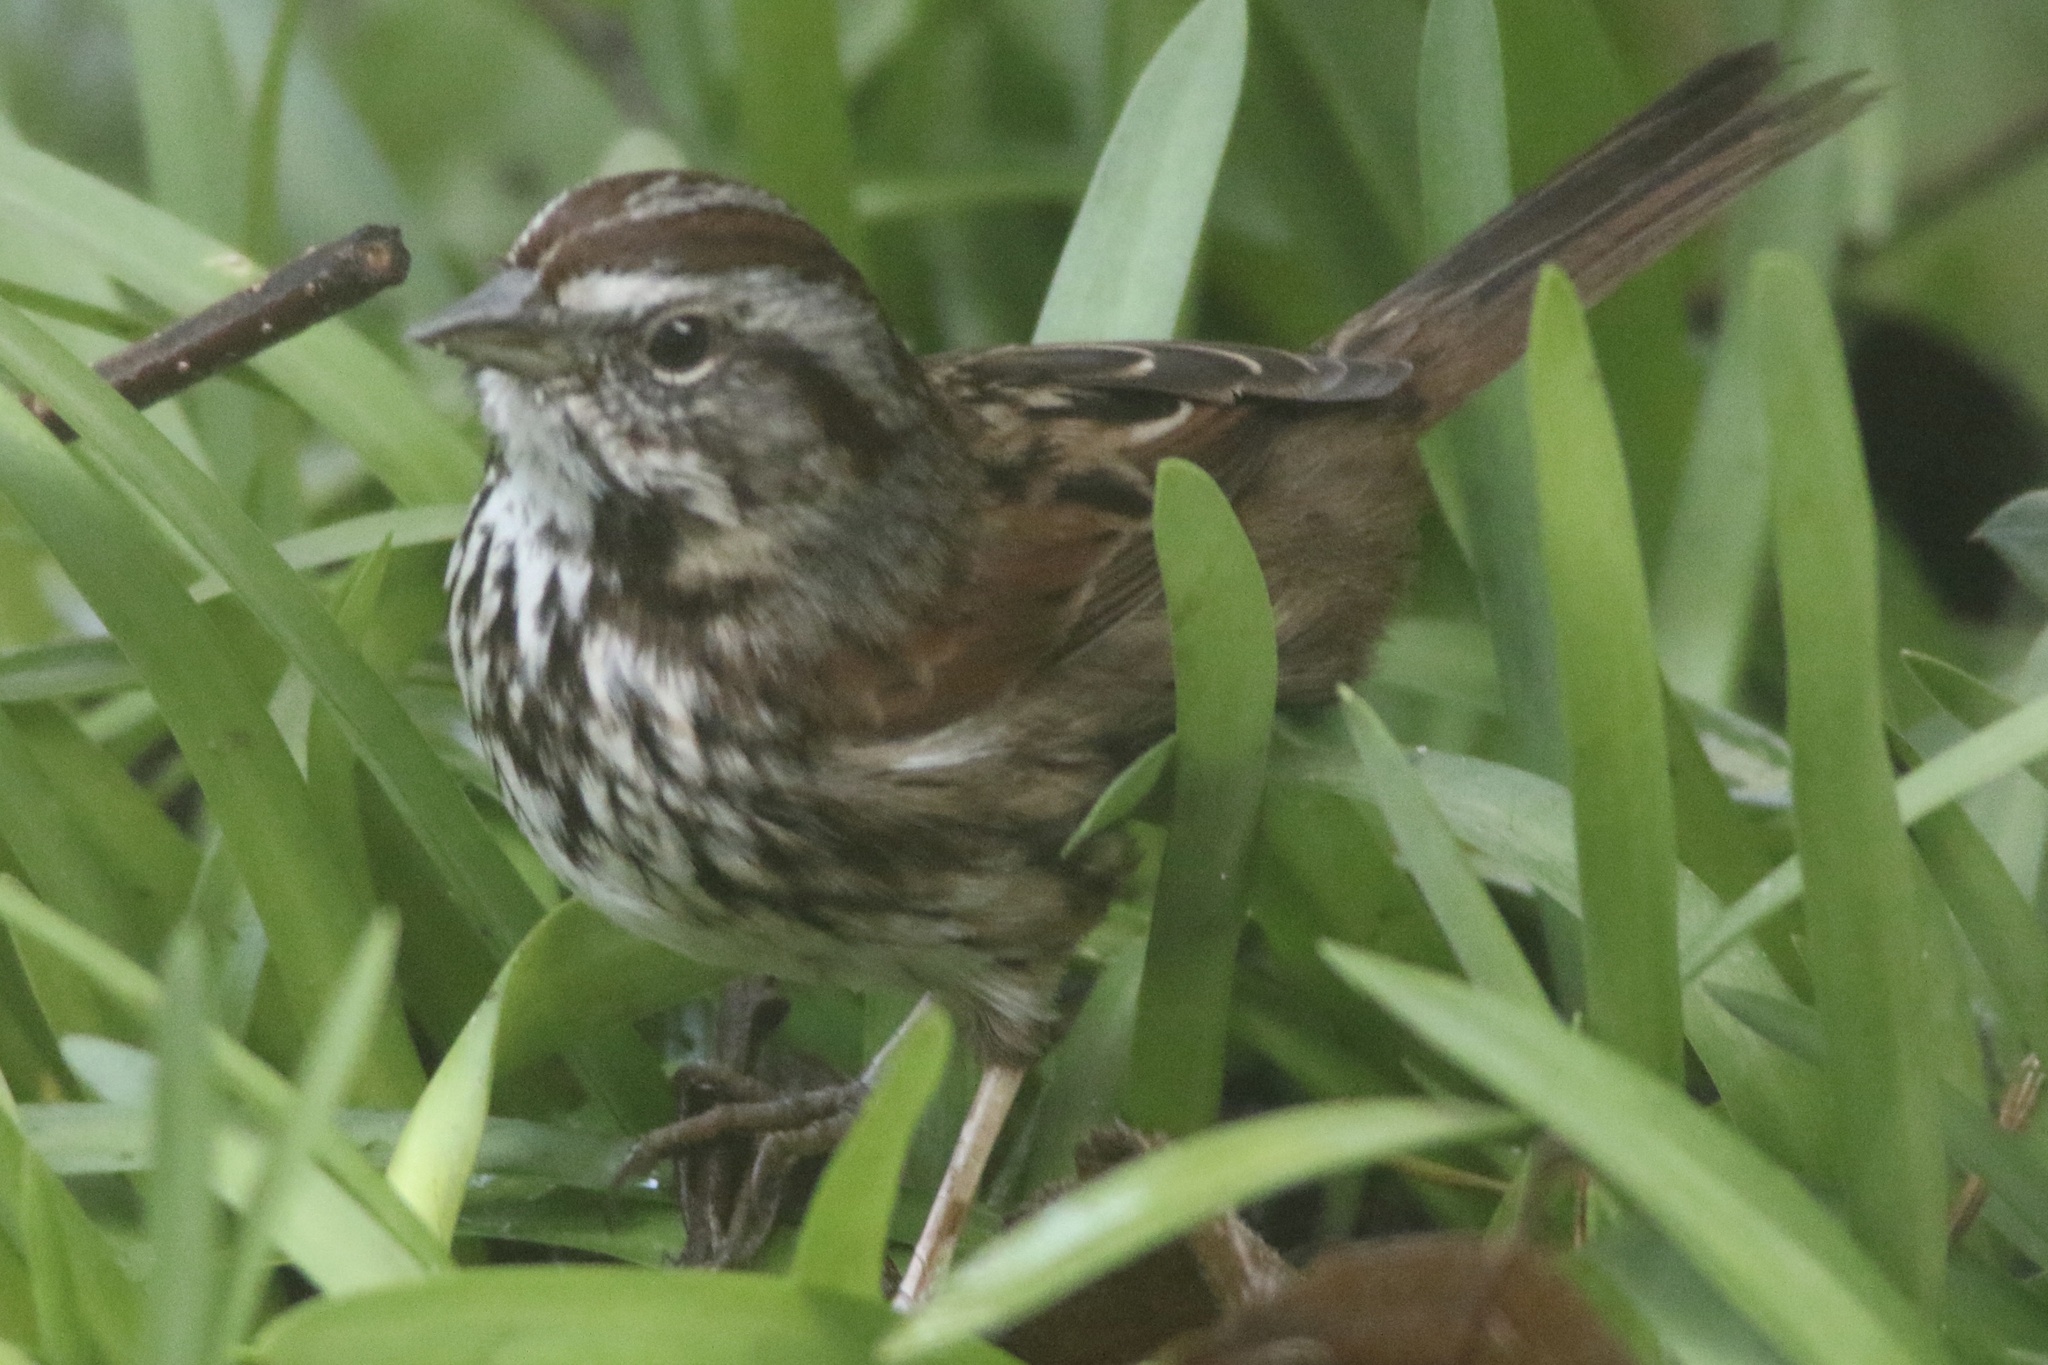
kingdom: Animalia
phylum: Chordata
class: Aves
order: Passeriformes
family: Passerellidae
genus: Melospiza
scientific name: Melospiza melodia
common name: Song sparrow
